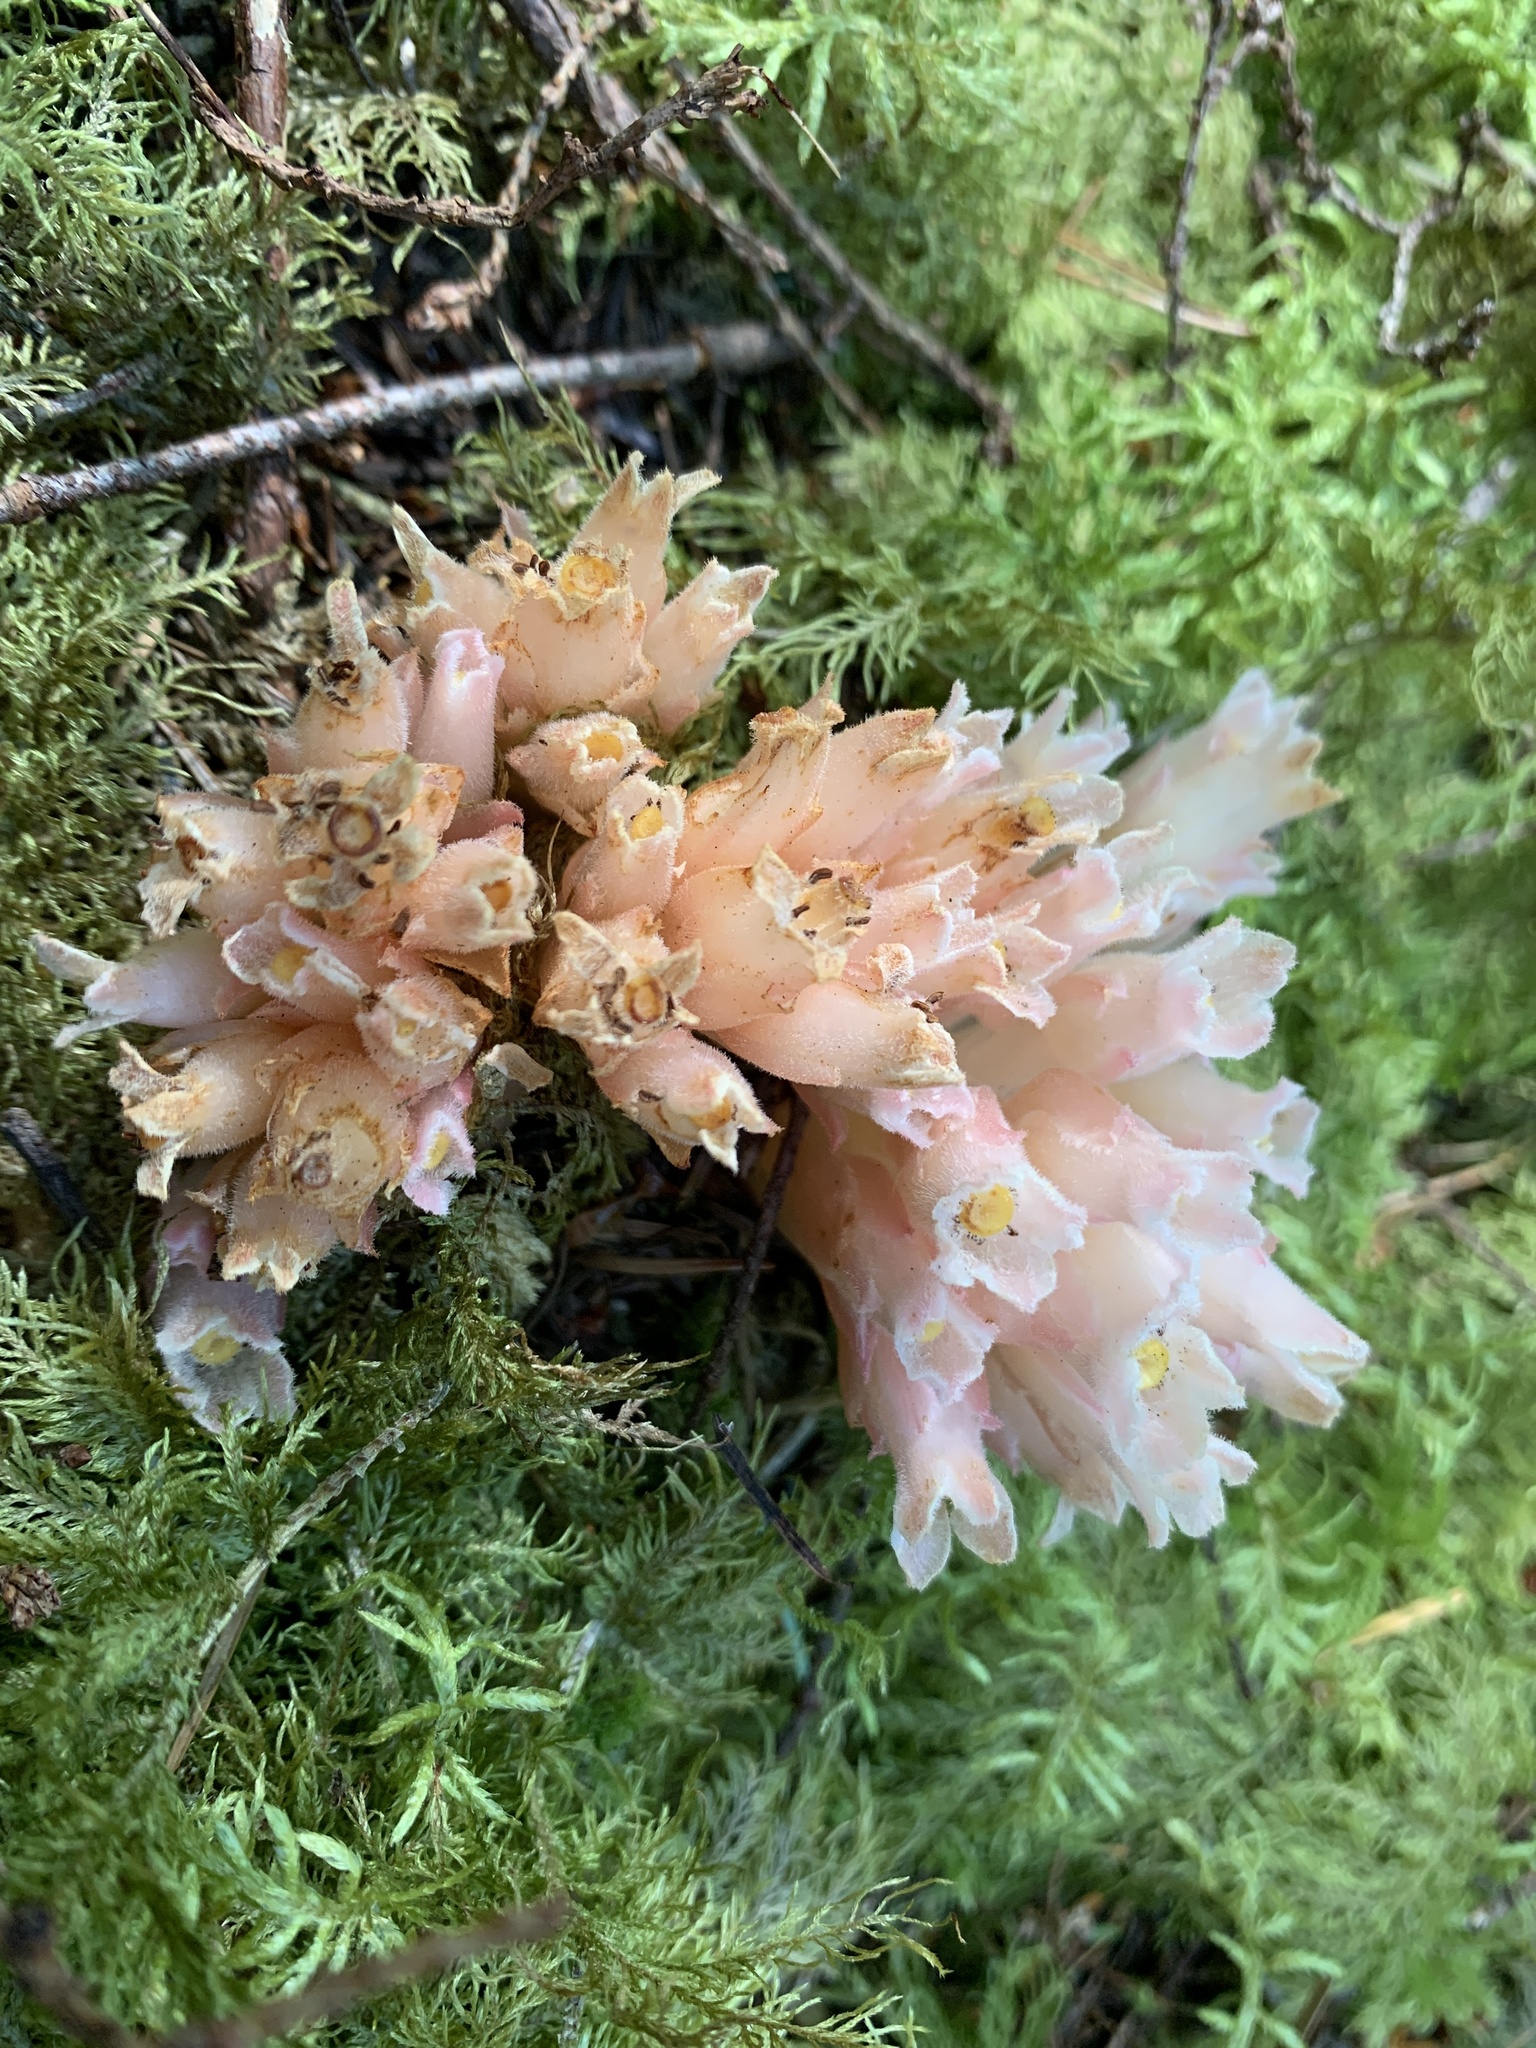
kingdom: Plantae
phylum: Tracheophyta
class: Magnoliopsida
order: Ericales
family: Ericaceae
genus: Hemitomes
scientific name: Hemitomes congestum
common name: Cone plant
